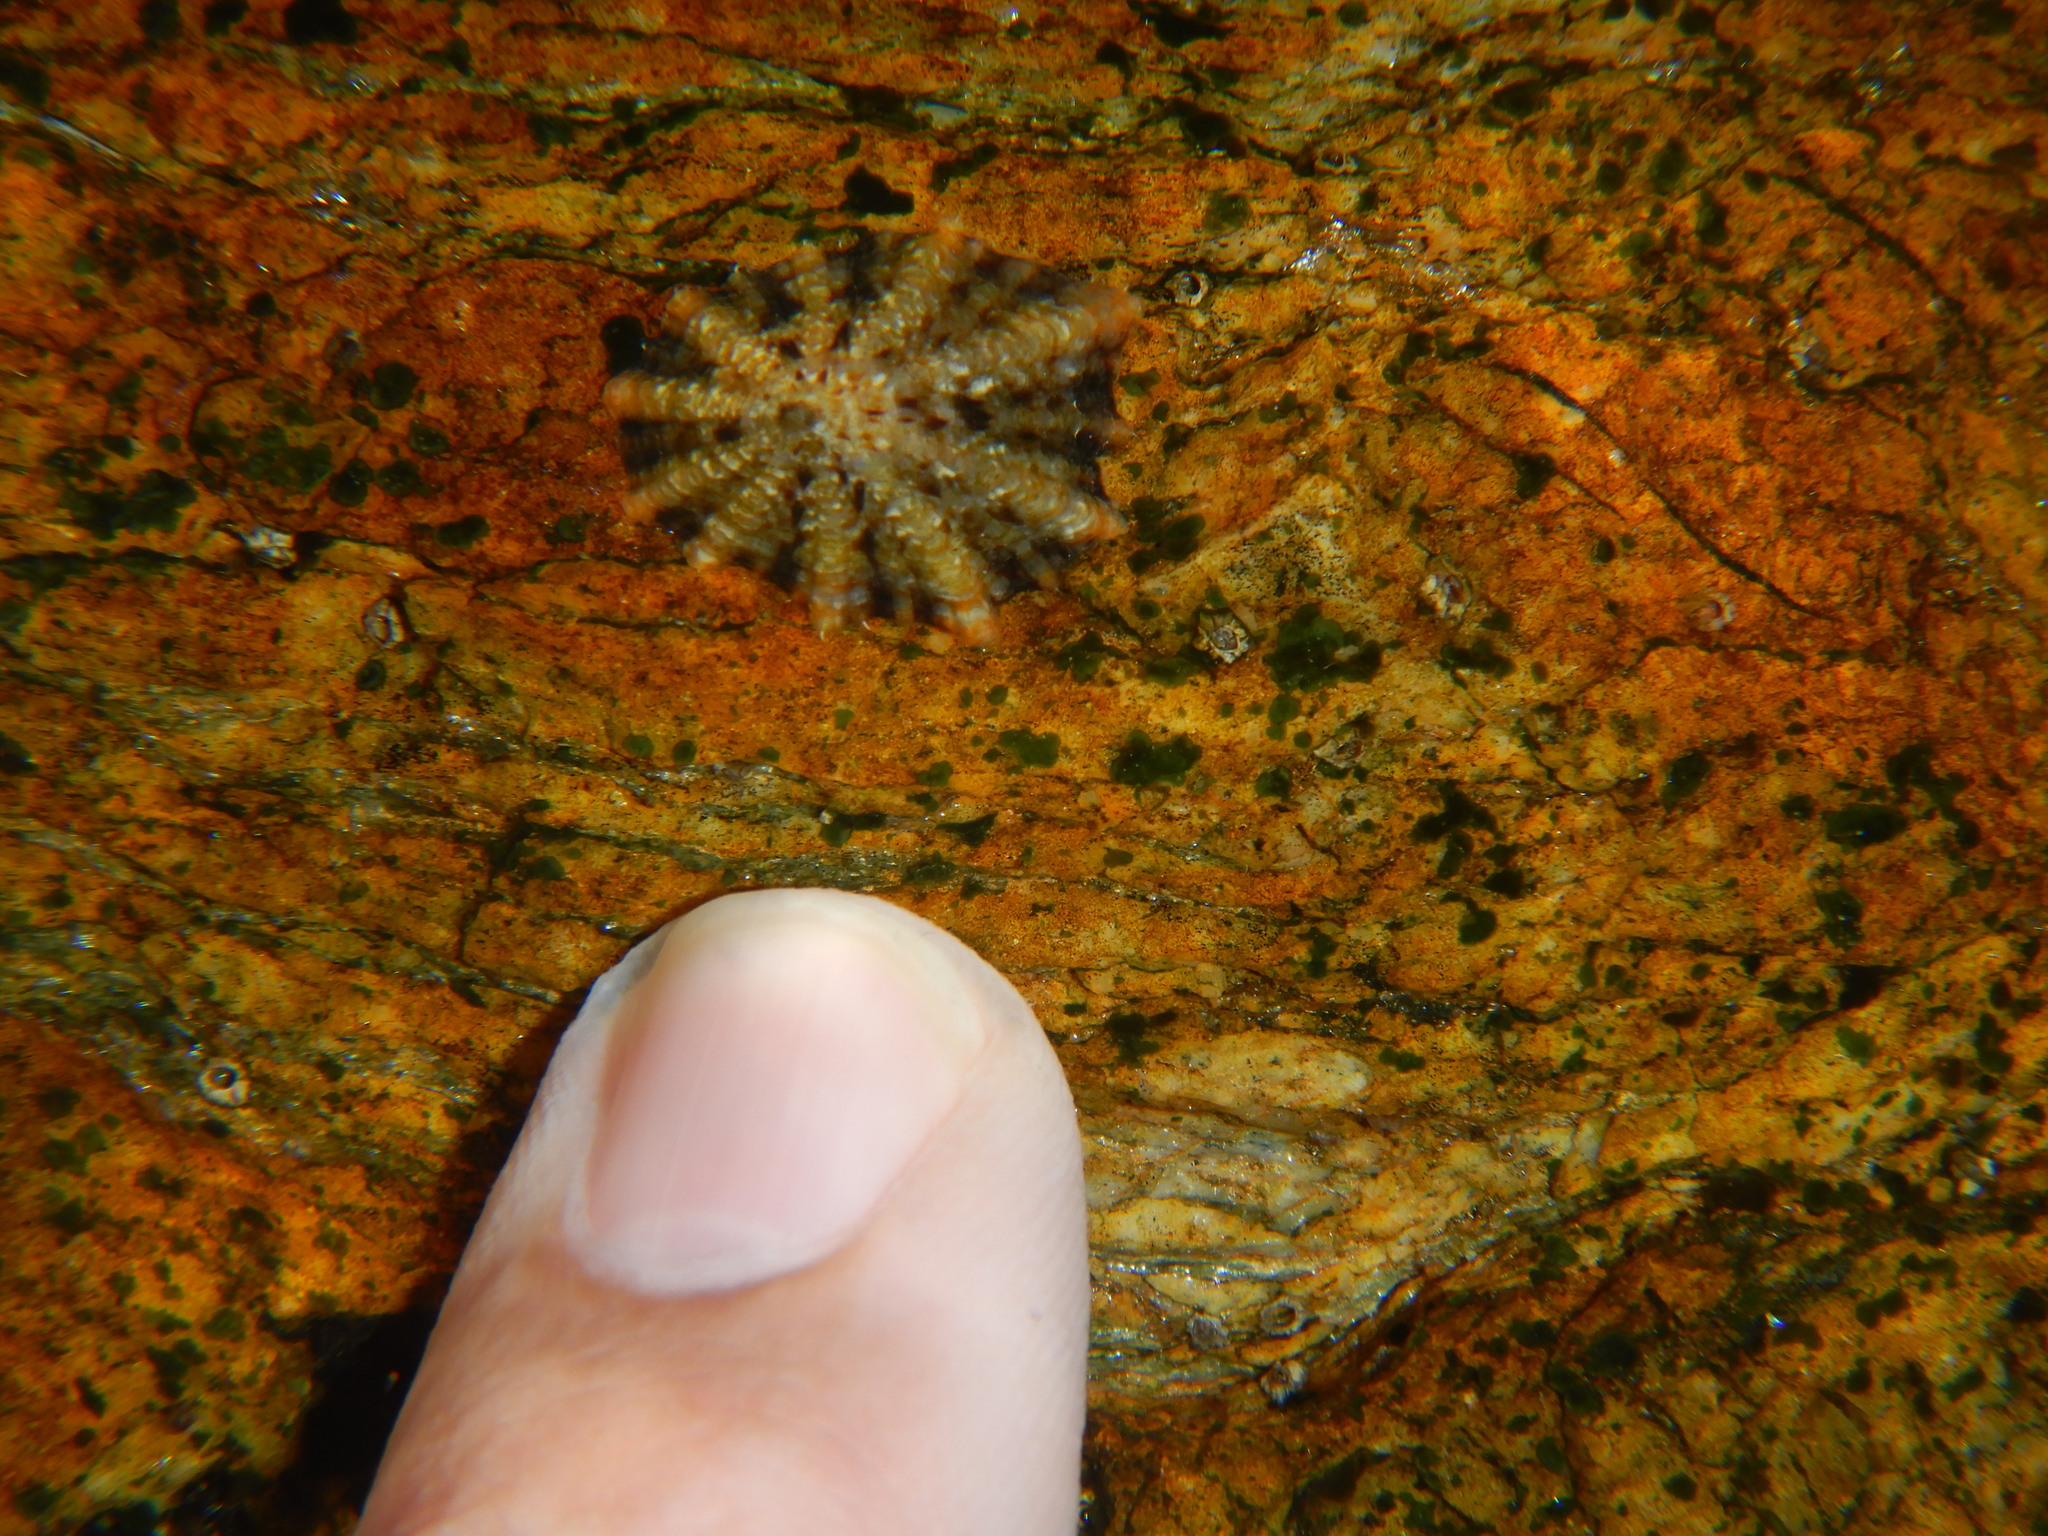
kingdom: Animalia
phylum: Mollusca
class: Gastropoda
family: Patellidae
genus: Patella
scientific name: Patella ulyssiponensis
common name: China limpet
